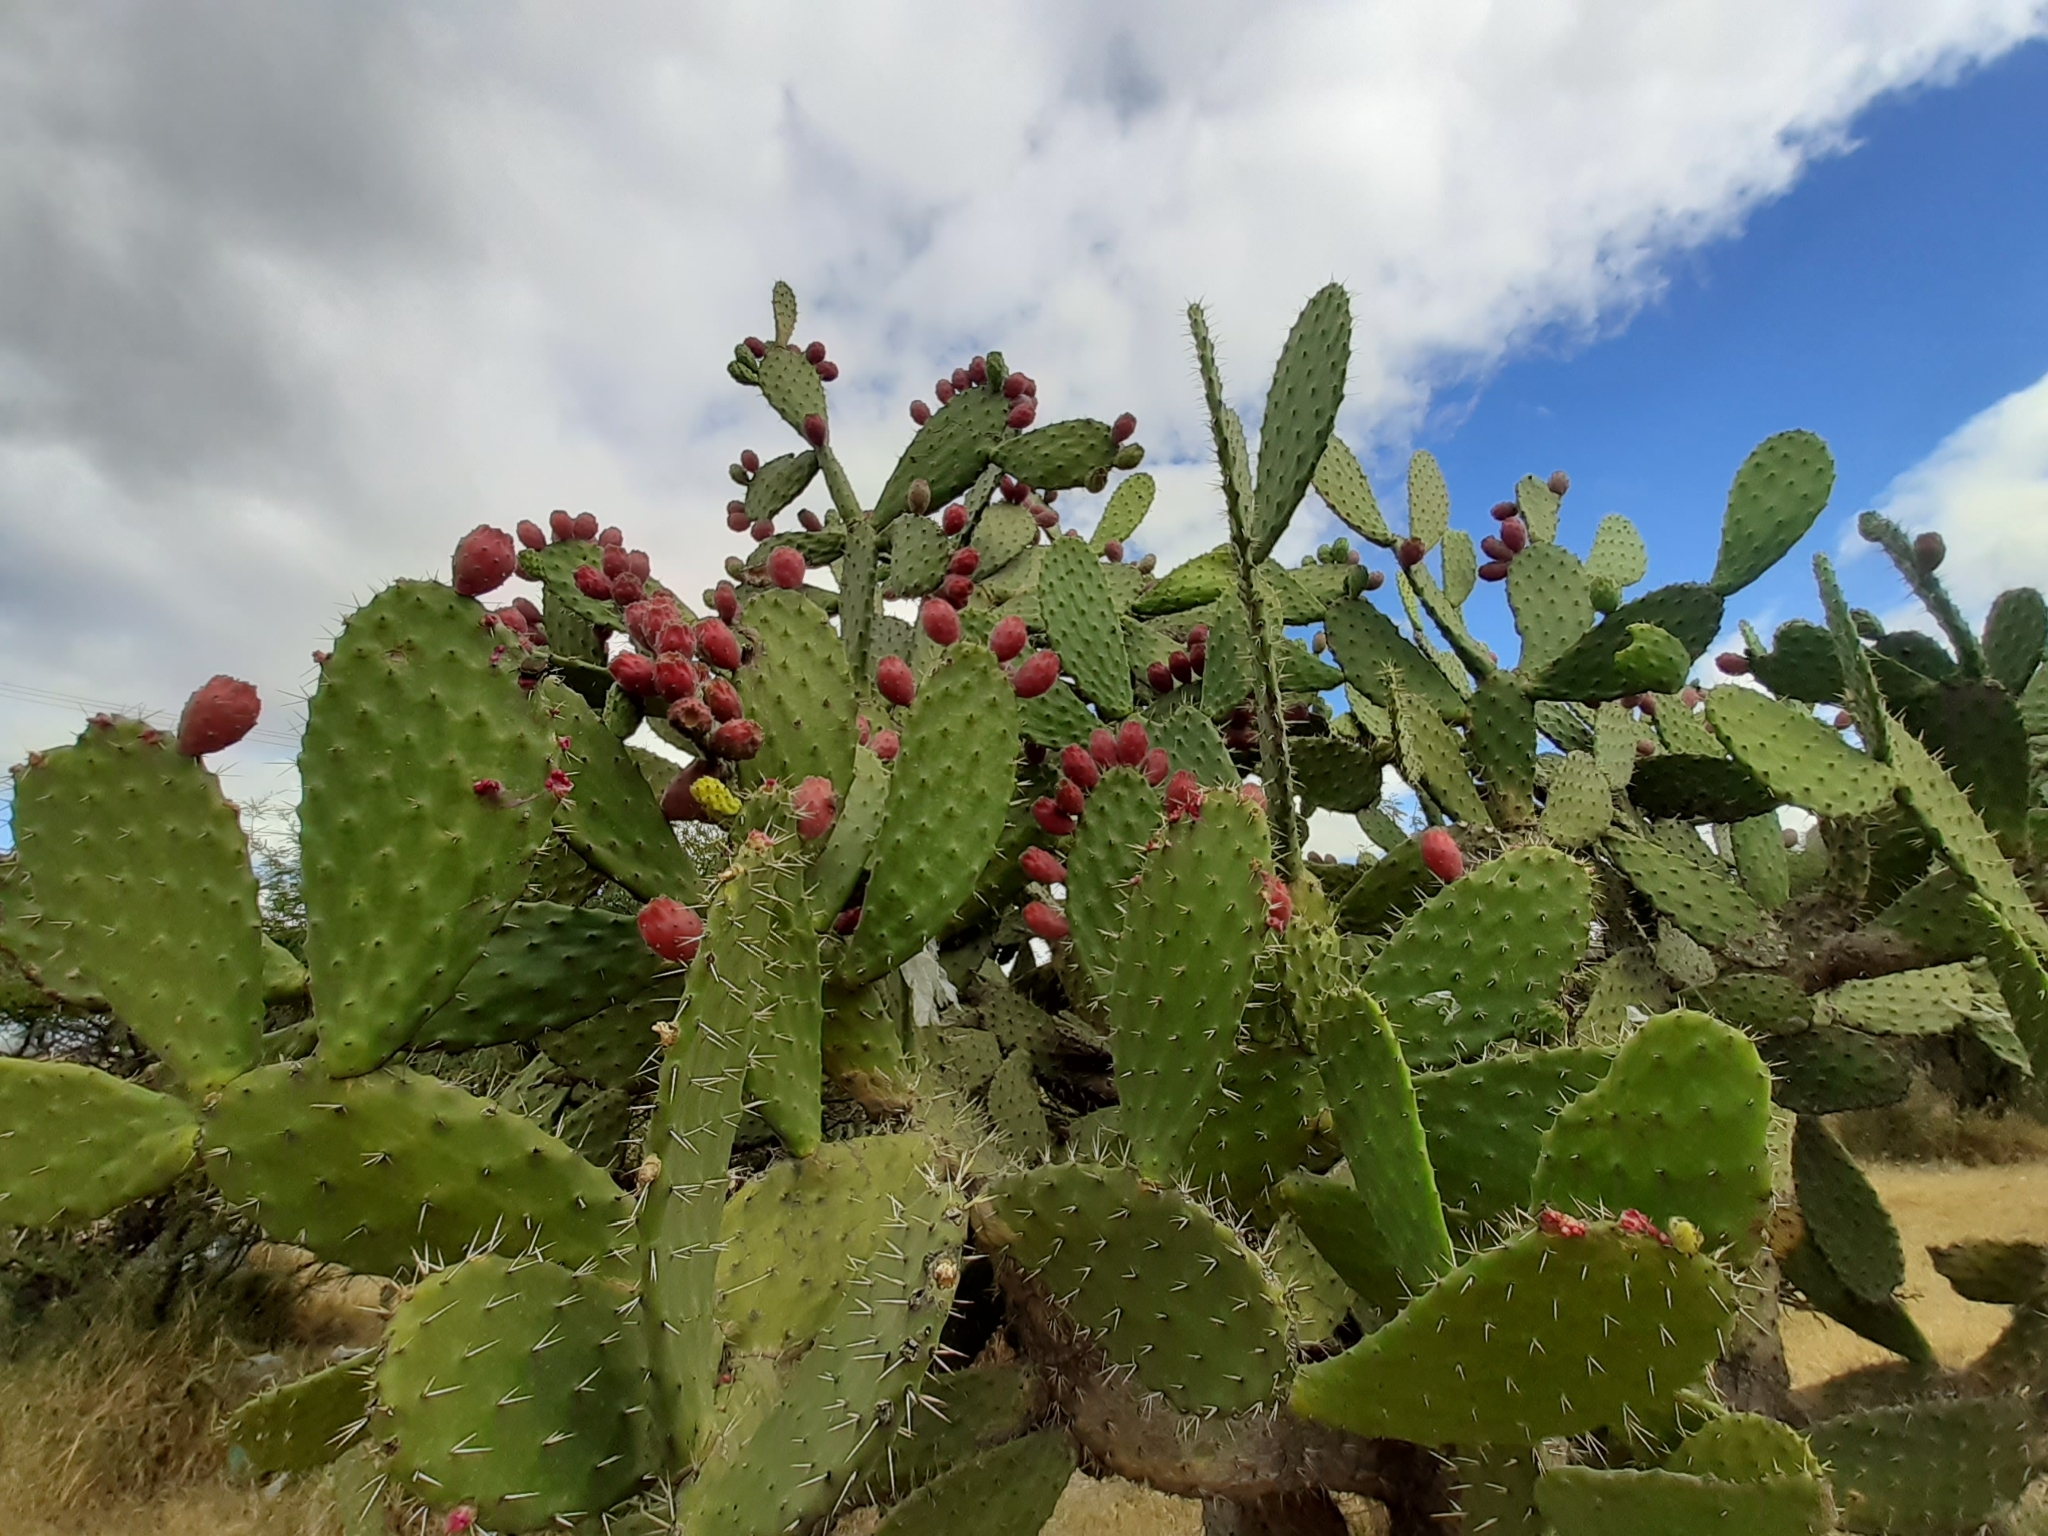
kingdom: Plantae
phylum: Tracheophyta
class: Magnoliopsida
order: Caryophyllales
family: Cactaceae
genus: Opuntia
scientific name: Opuntia tomentosa
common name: Woollyjoint pricklypear
